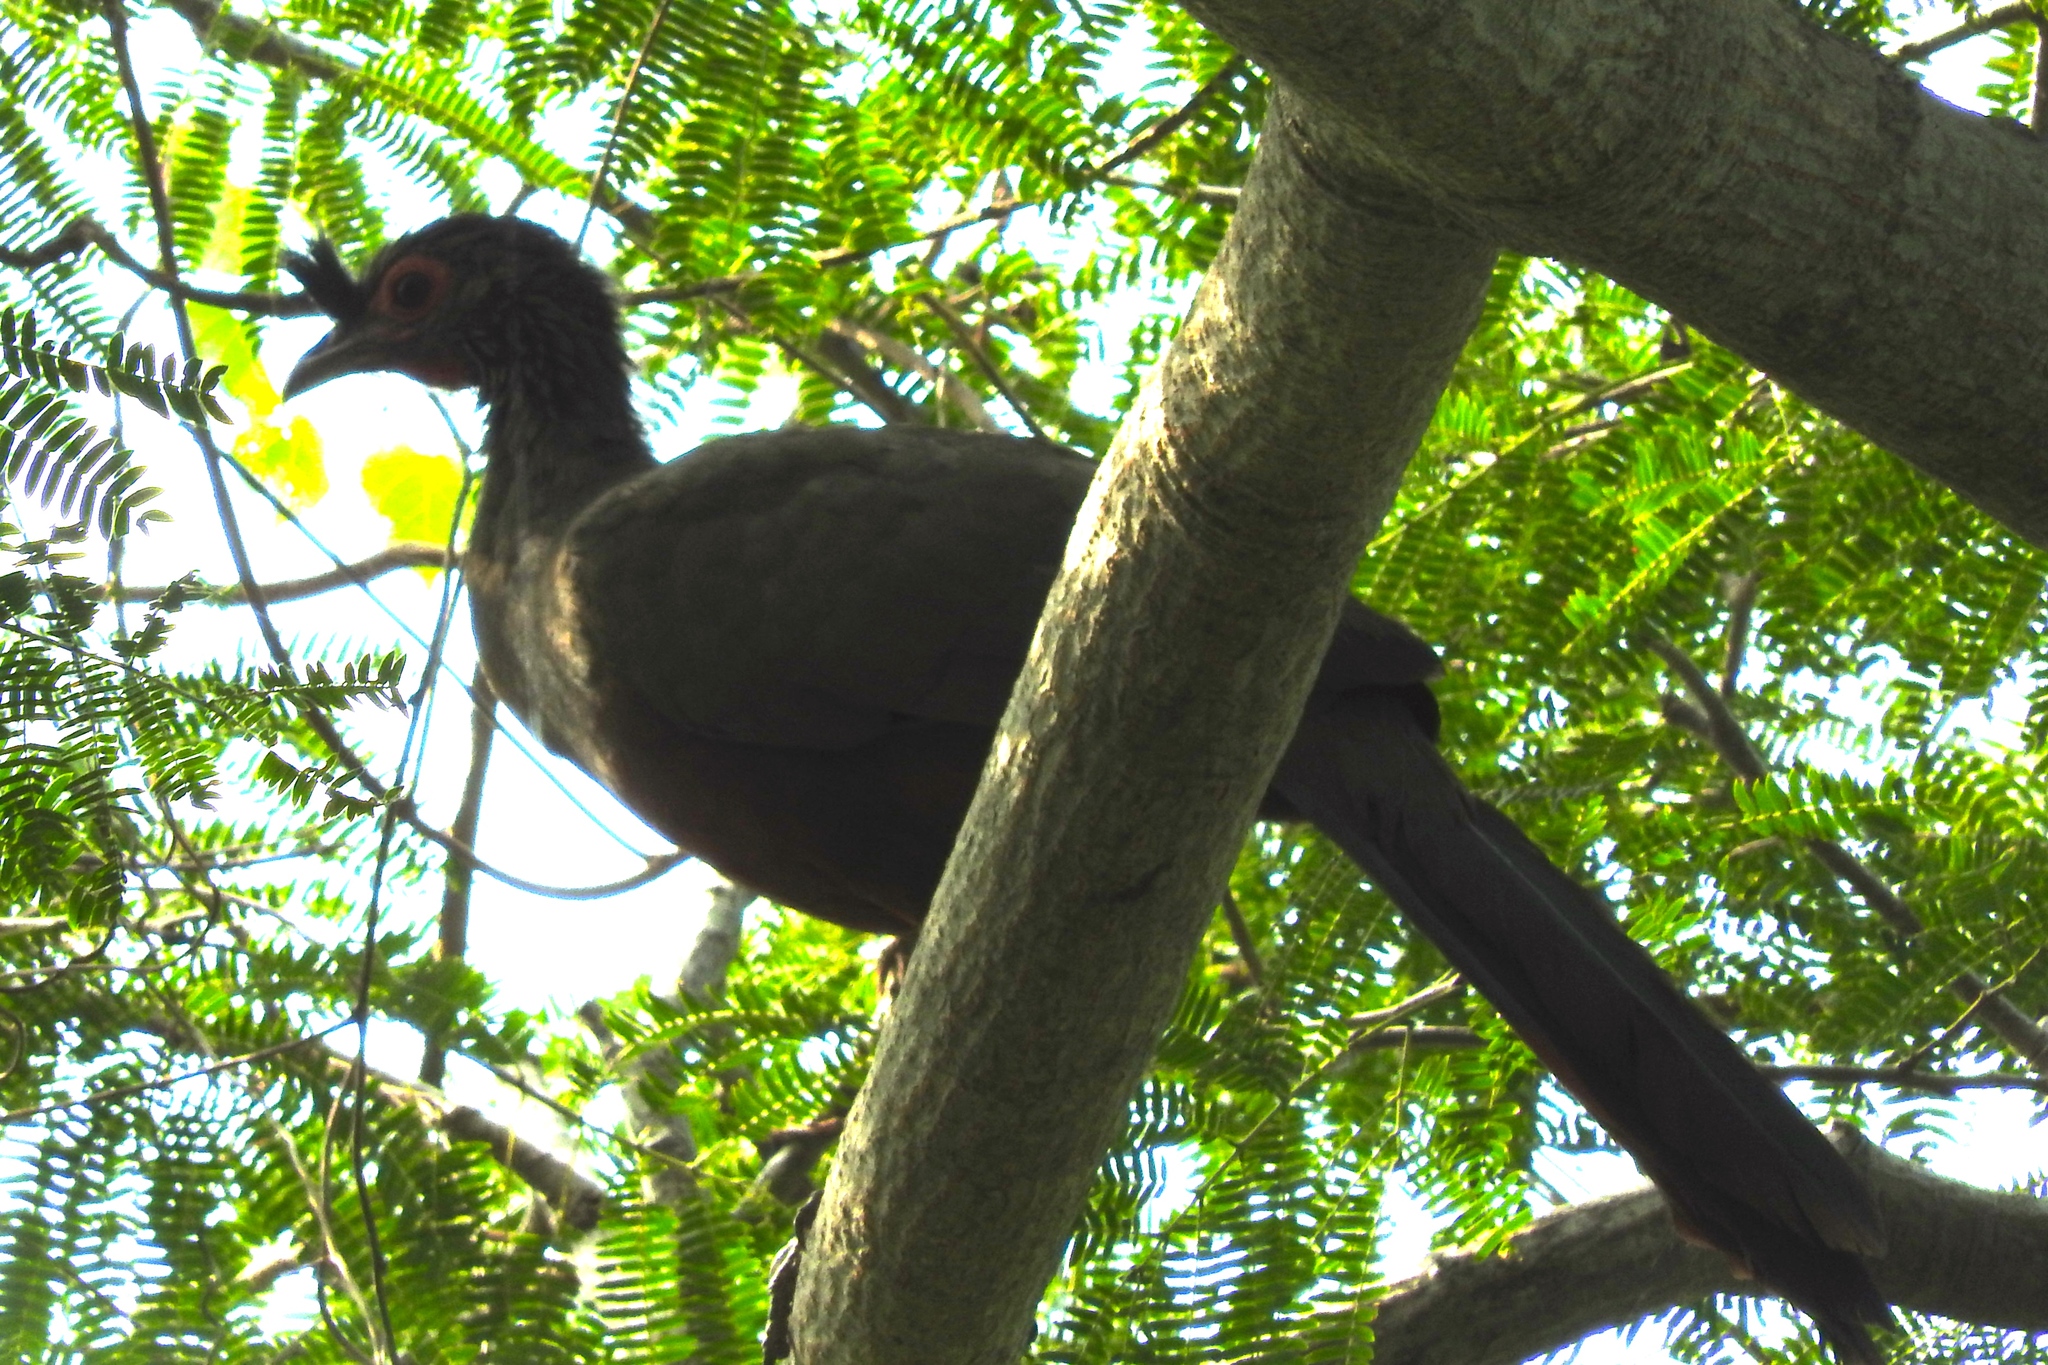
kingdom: Animalia
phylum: Chordata
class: Aves
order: Galliformes
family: Cracidae
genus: Ortalis
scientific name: Ortalis wagleri
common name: Rufous-bellied chachalaca
